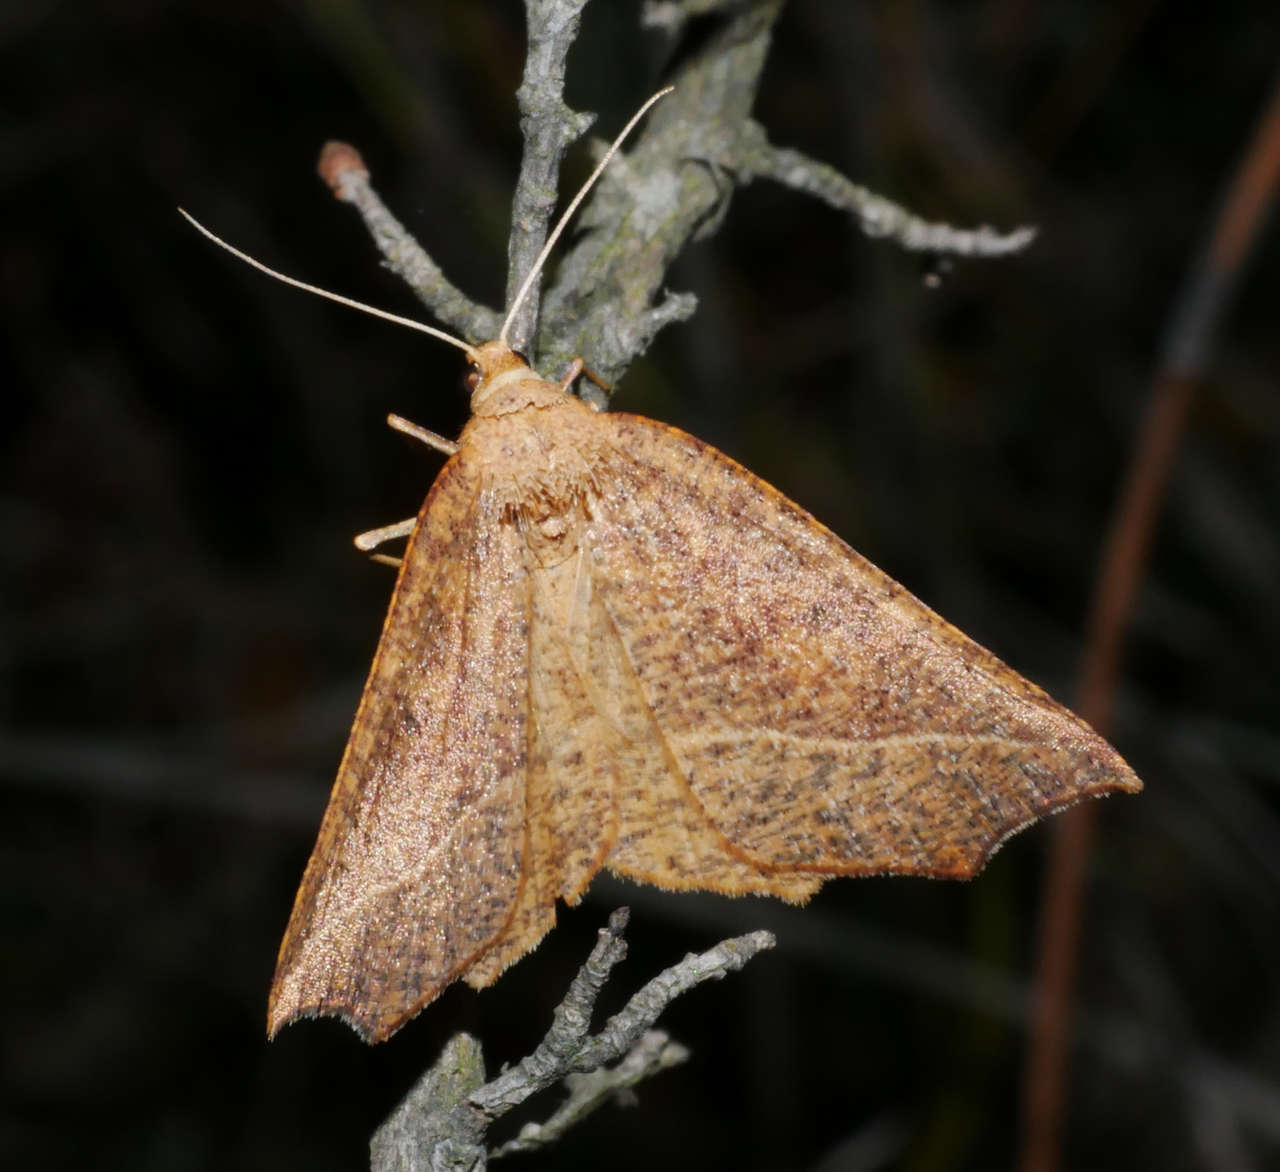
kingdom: Animalia
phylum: Arthropoda
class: Insecta
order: Lepidoptera
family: Geometridae
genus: Microsema
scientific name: Microsema
